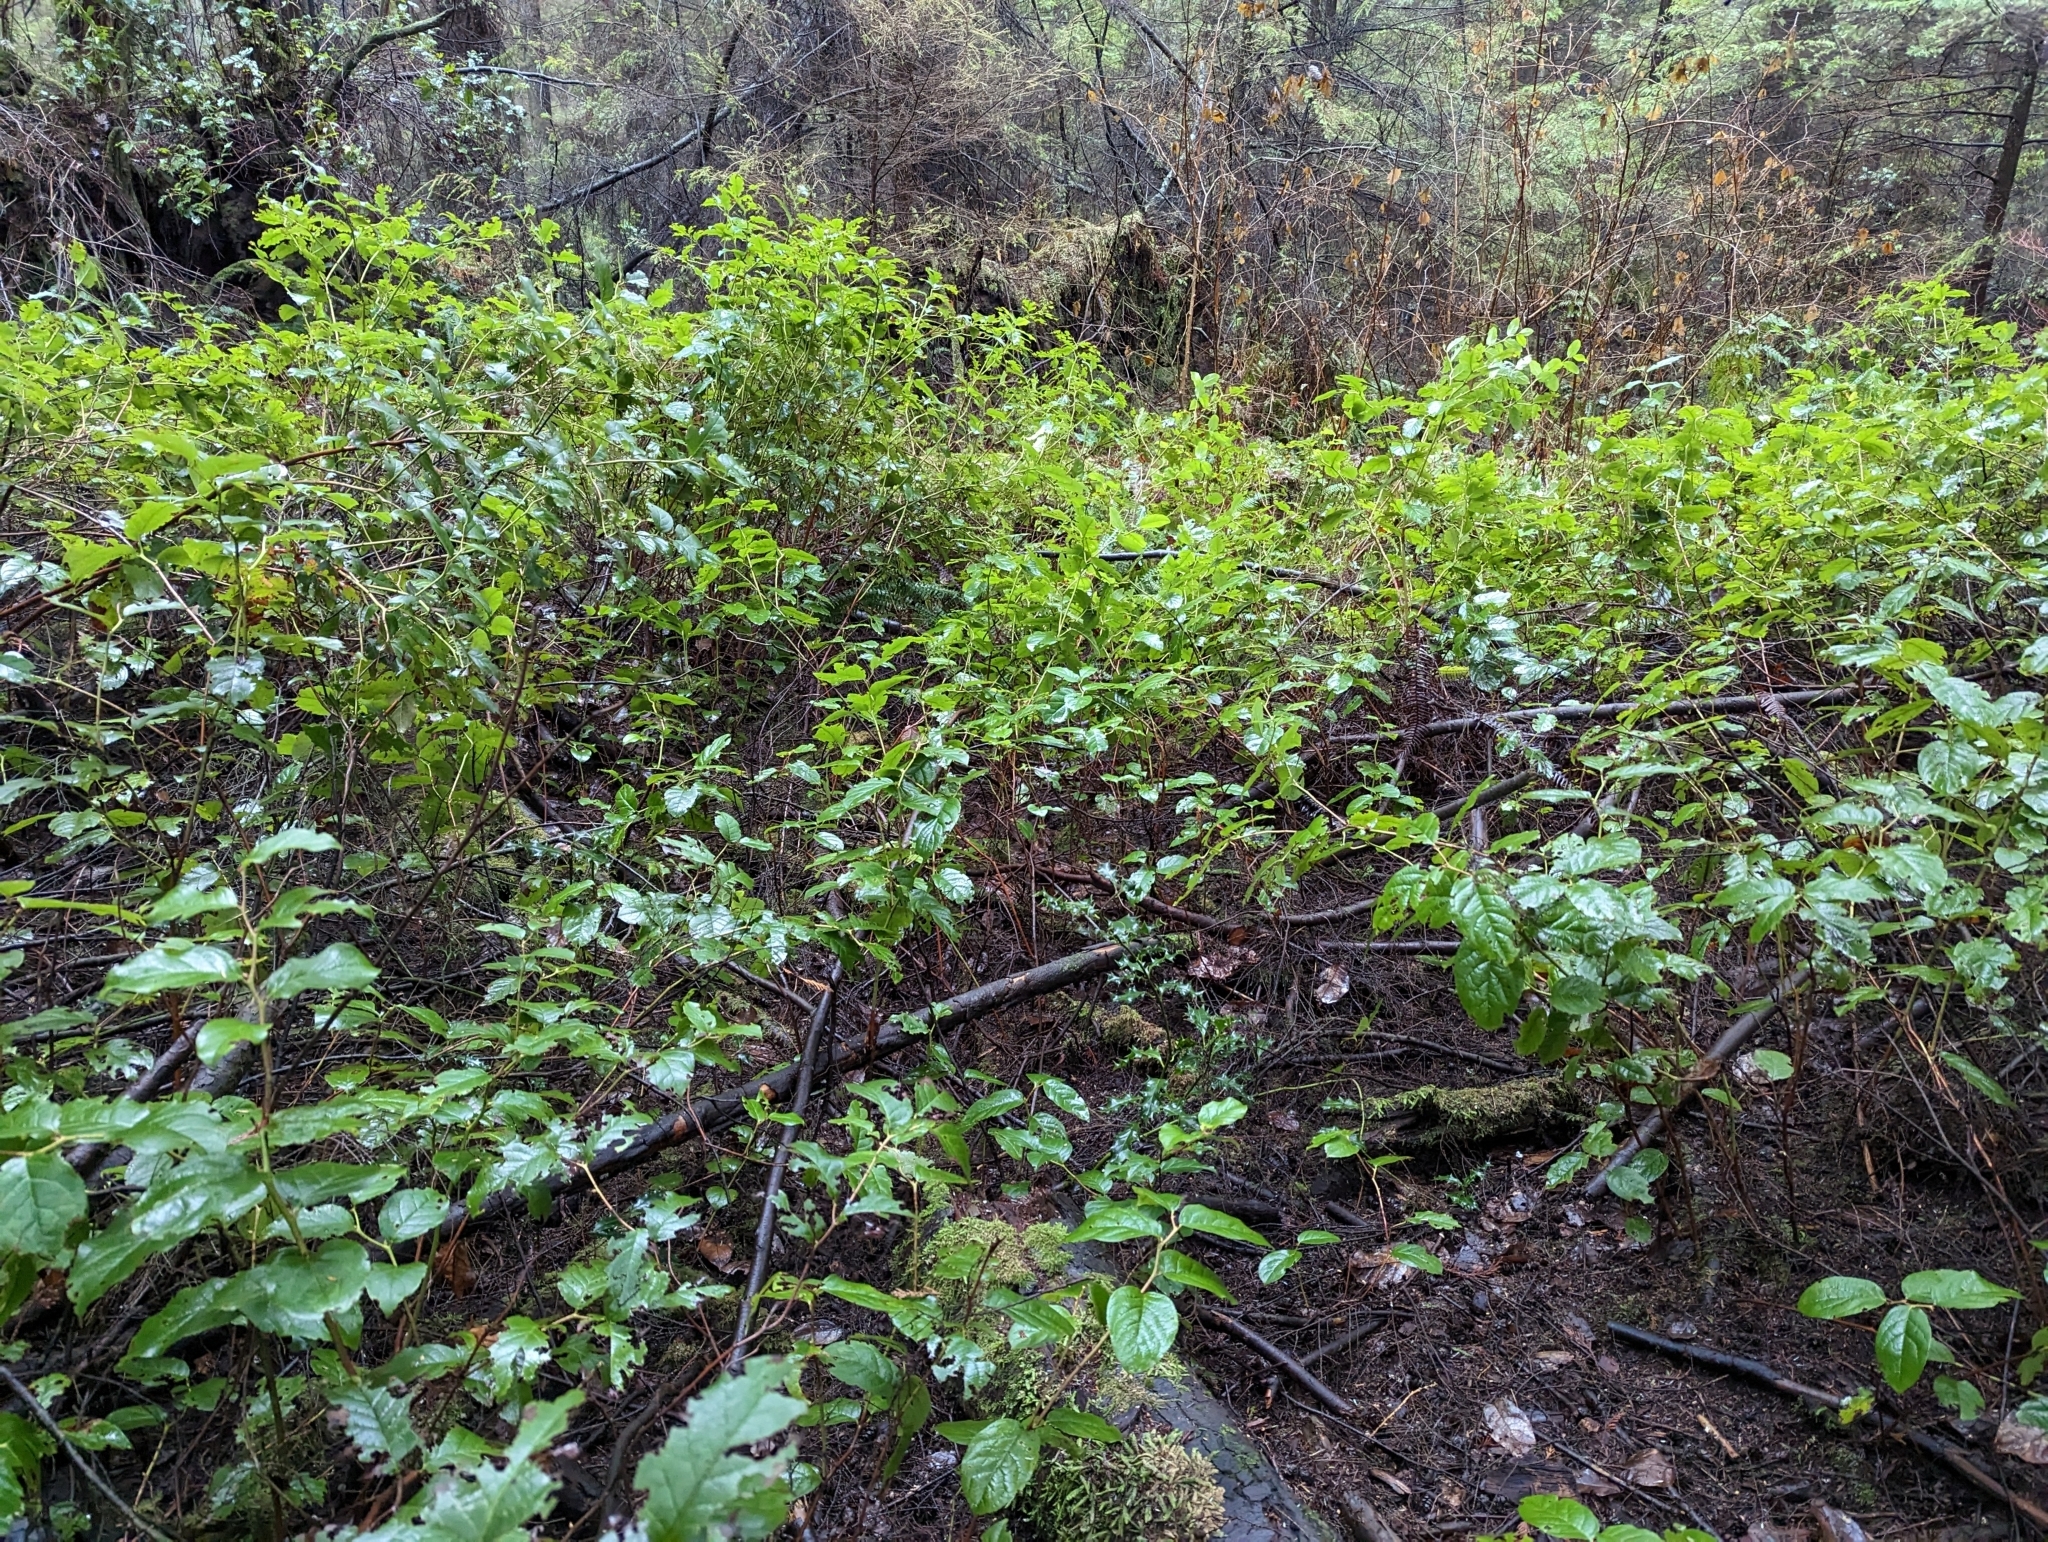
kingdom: Plantae
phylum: Tracheophyta
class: Magnoliopsida
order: Ericales
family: Ericaceae
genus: Gaultheria
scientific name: Gaultheria shallon
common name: Shallon
